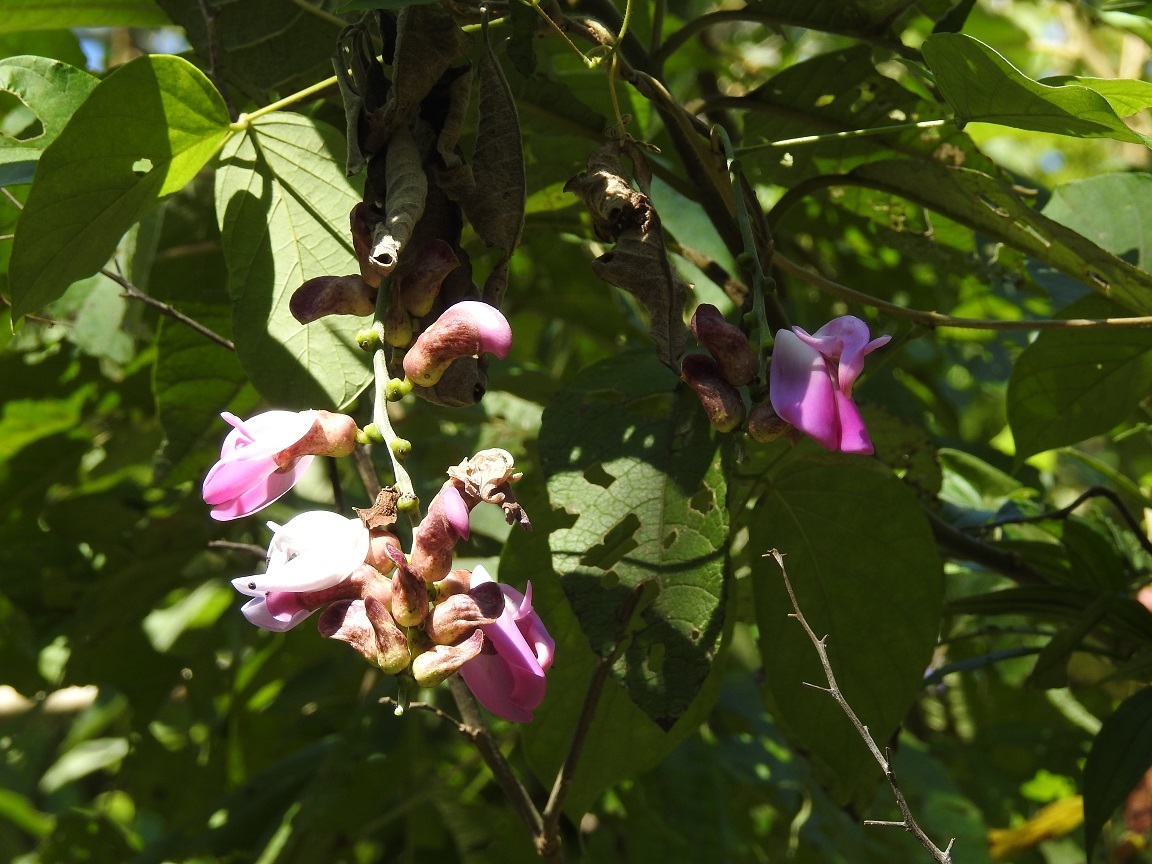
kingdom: Plantae
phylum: Tracheophyta
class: Magnoliopsida
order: Fabales
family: Fabaceae
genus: Canavalia
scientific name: Canavalia villosa
